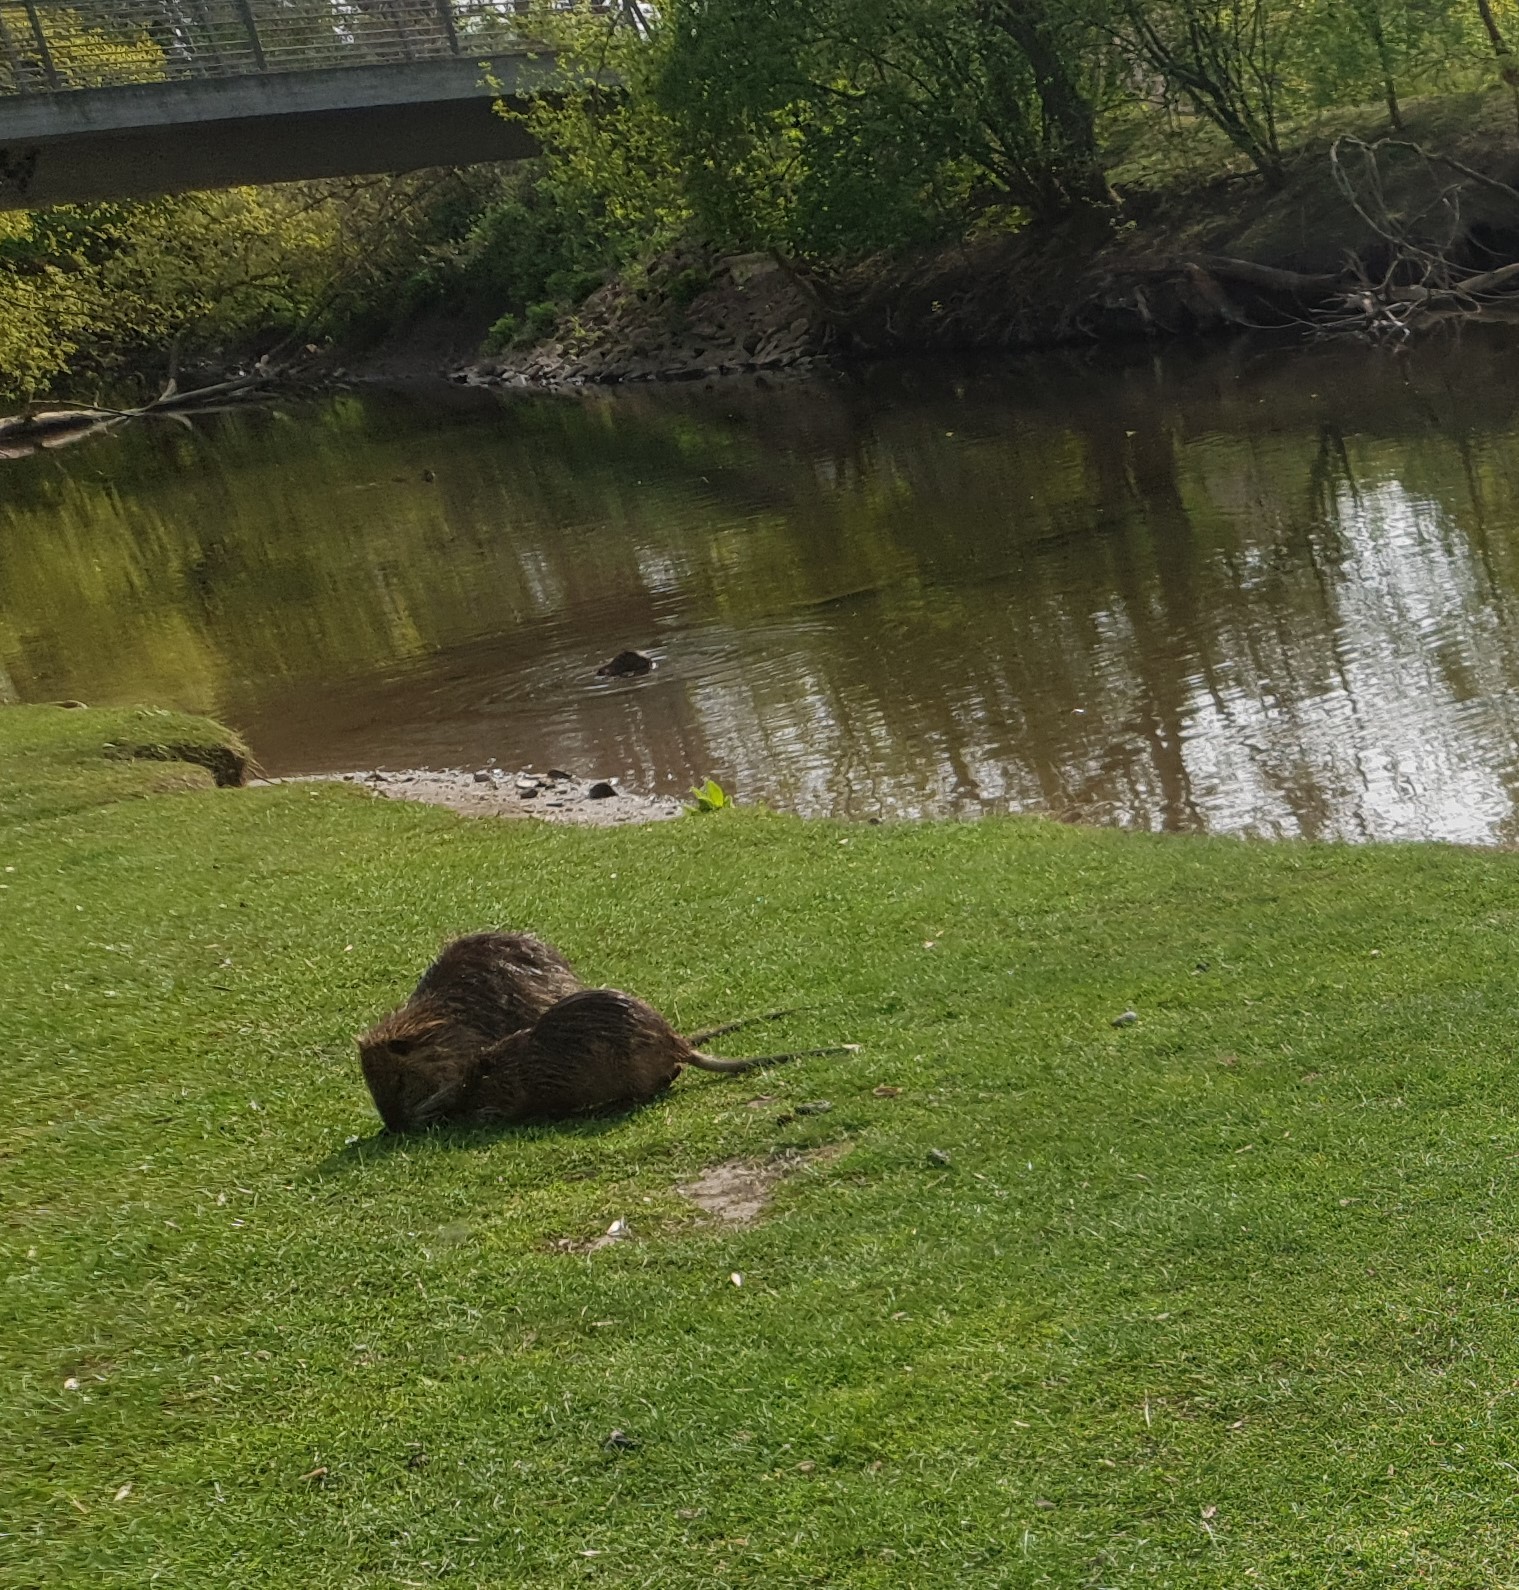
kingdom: Animalia
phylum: Chordata
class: Mammalia
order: Rodentia
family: Myocastoridae
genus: Myocastor
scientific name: Myocastor coypus
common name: Coypu
